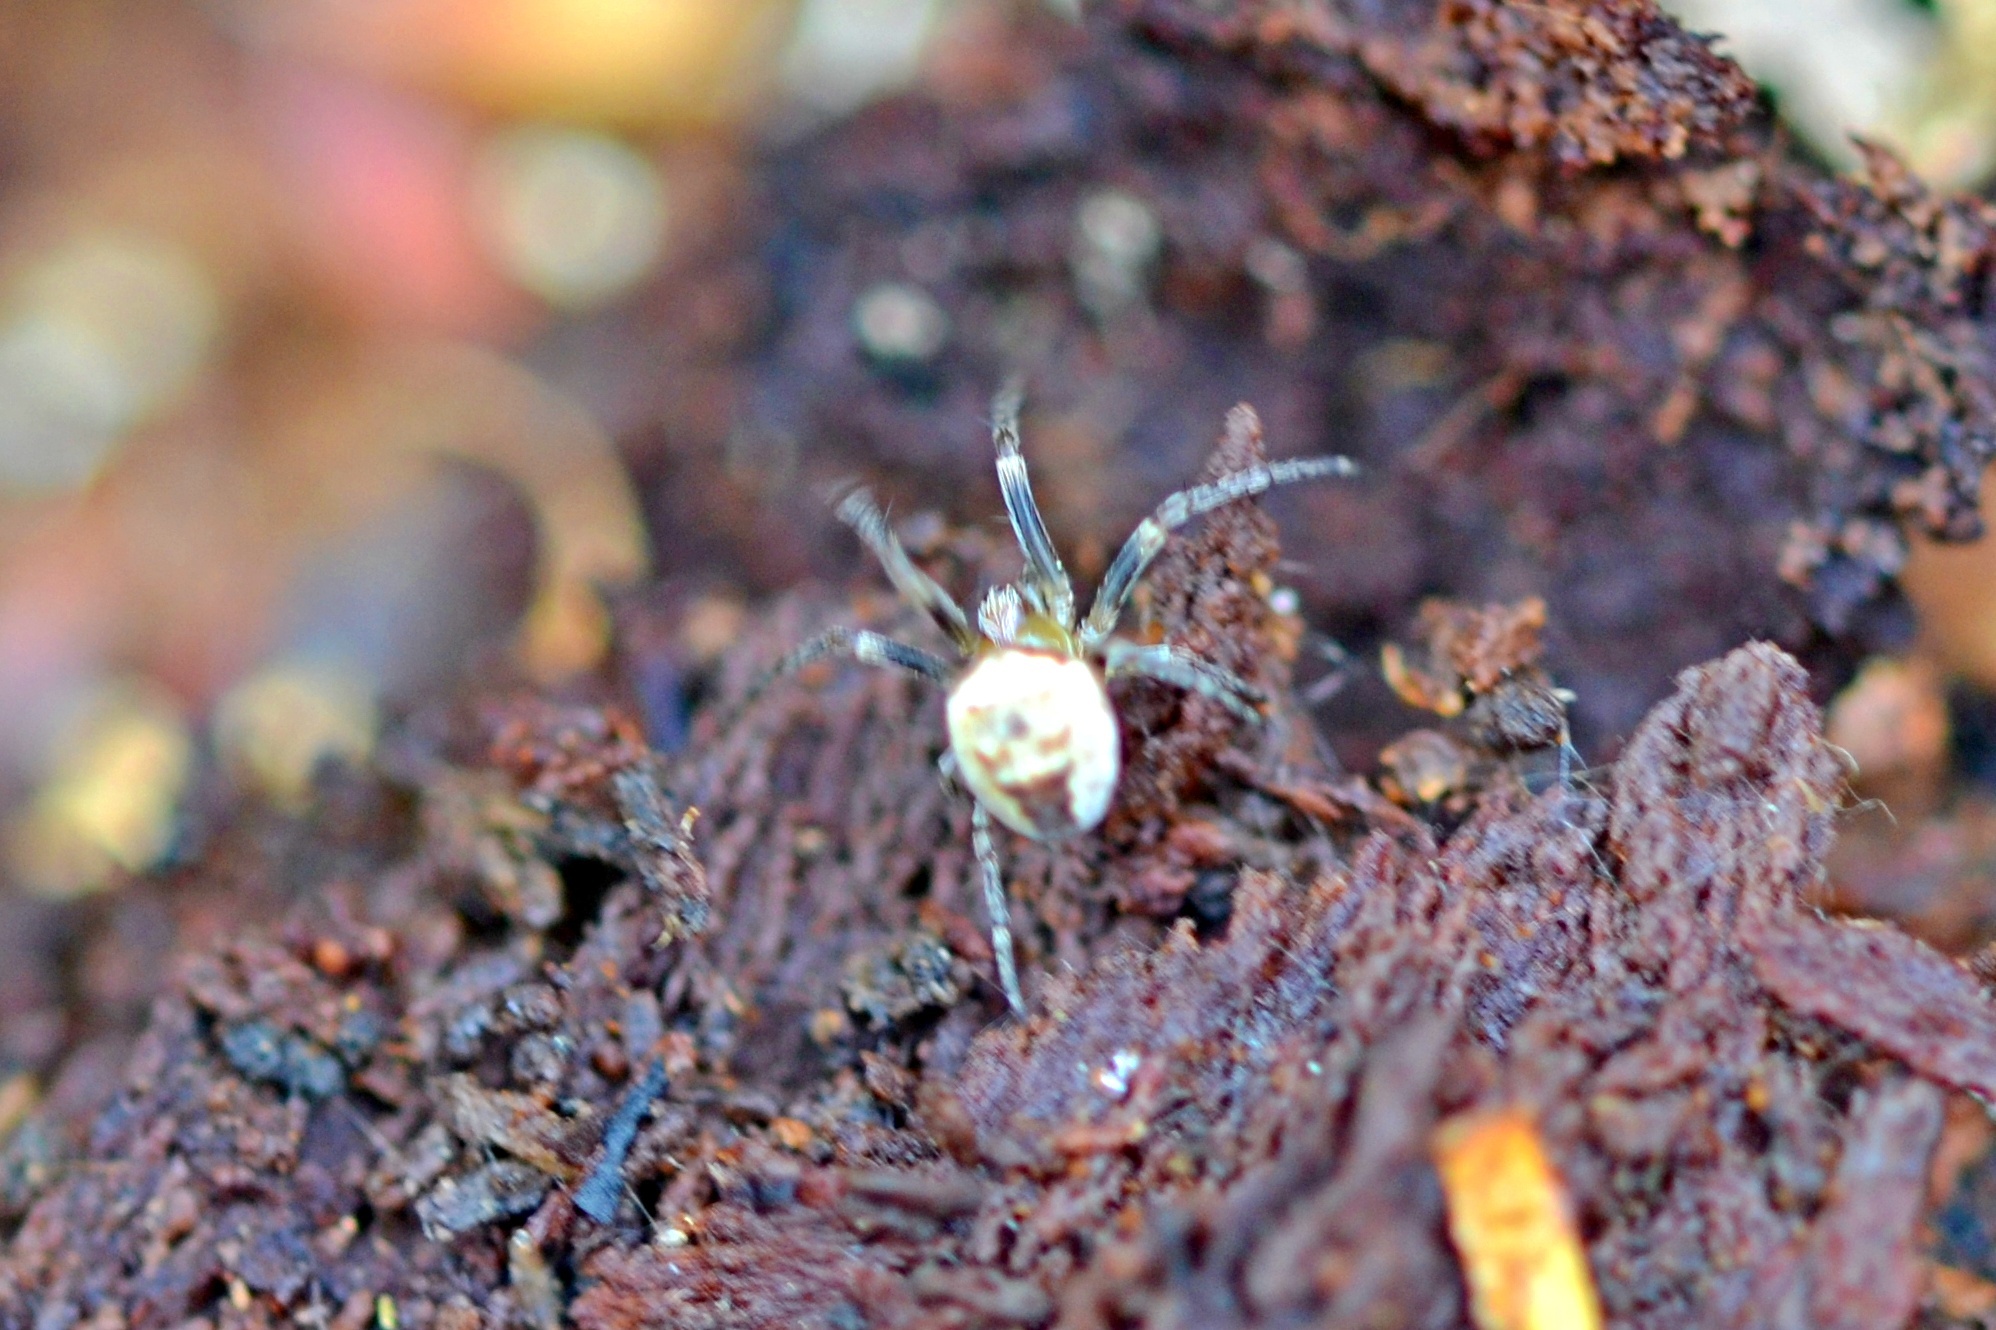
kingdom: Animalia
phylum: Arthropoda
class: Arachnida
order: Araneae
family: Araneidae
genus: Zilla
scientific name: Zilla diodia
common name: Zilla diodia
